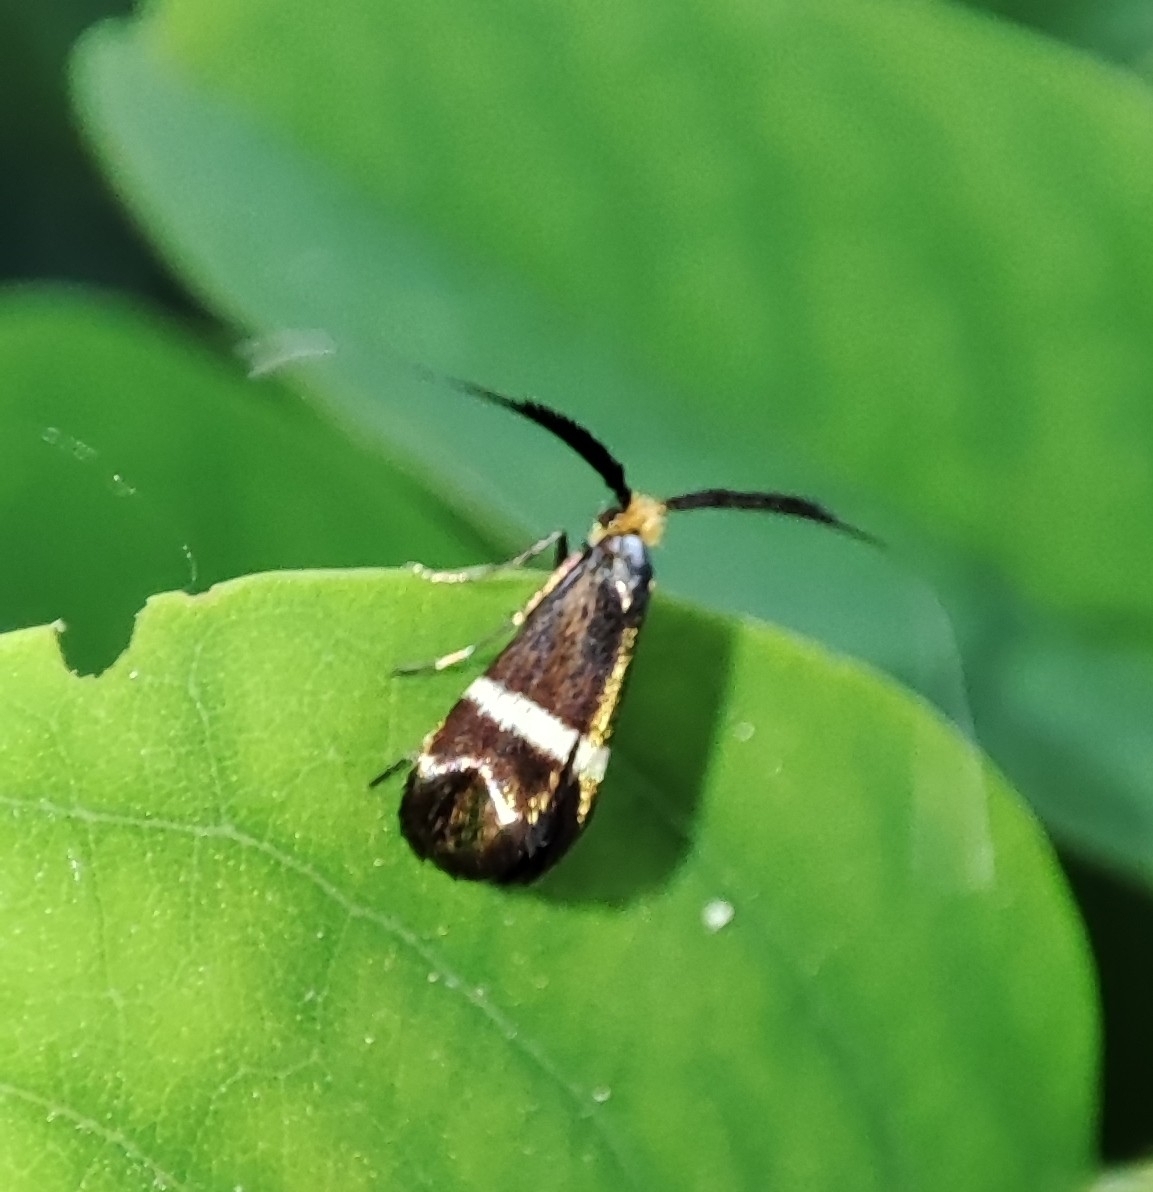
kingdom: Animalia
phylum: Arthropoda
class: Insecta
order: Lepidoptera
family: Adelidae
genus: Adela
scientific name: Adela australis
